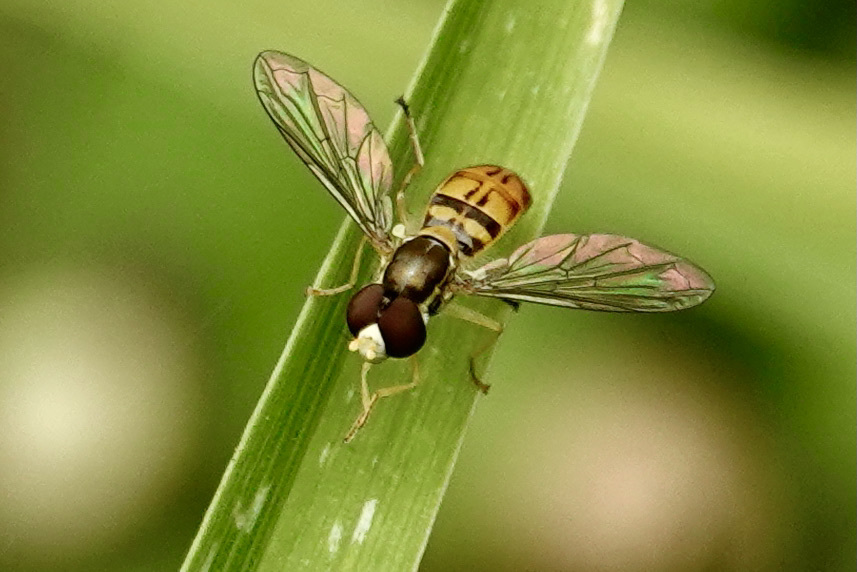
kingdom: Animalia
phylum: Arthropoda
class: Insecta
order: Diptera
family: Syrphidae
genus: Toxomerus
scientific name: Toxomerus marginatus
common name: Syrphid fly
